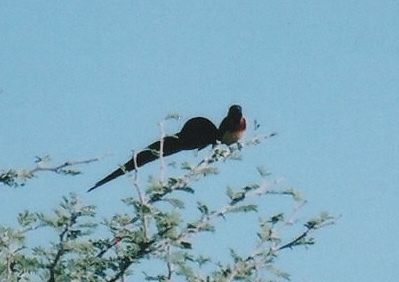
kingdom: Animalia
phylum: Chordata
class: Aves
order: Passeriformes
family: Viduidae
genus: Vidua
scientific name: Vidua paradisaea
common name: Long-tailed paradise whydah
